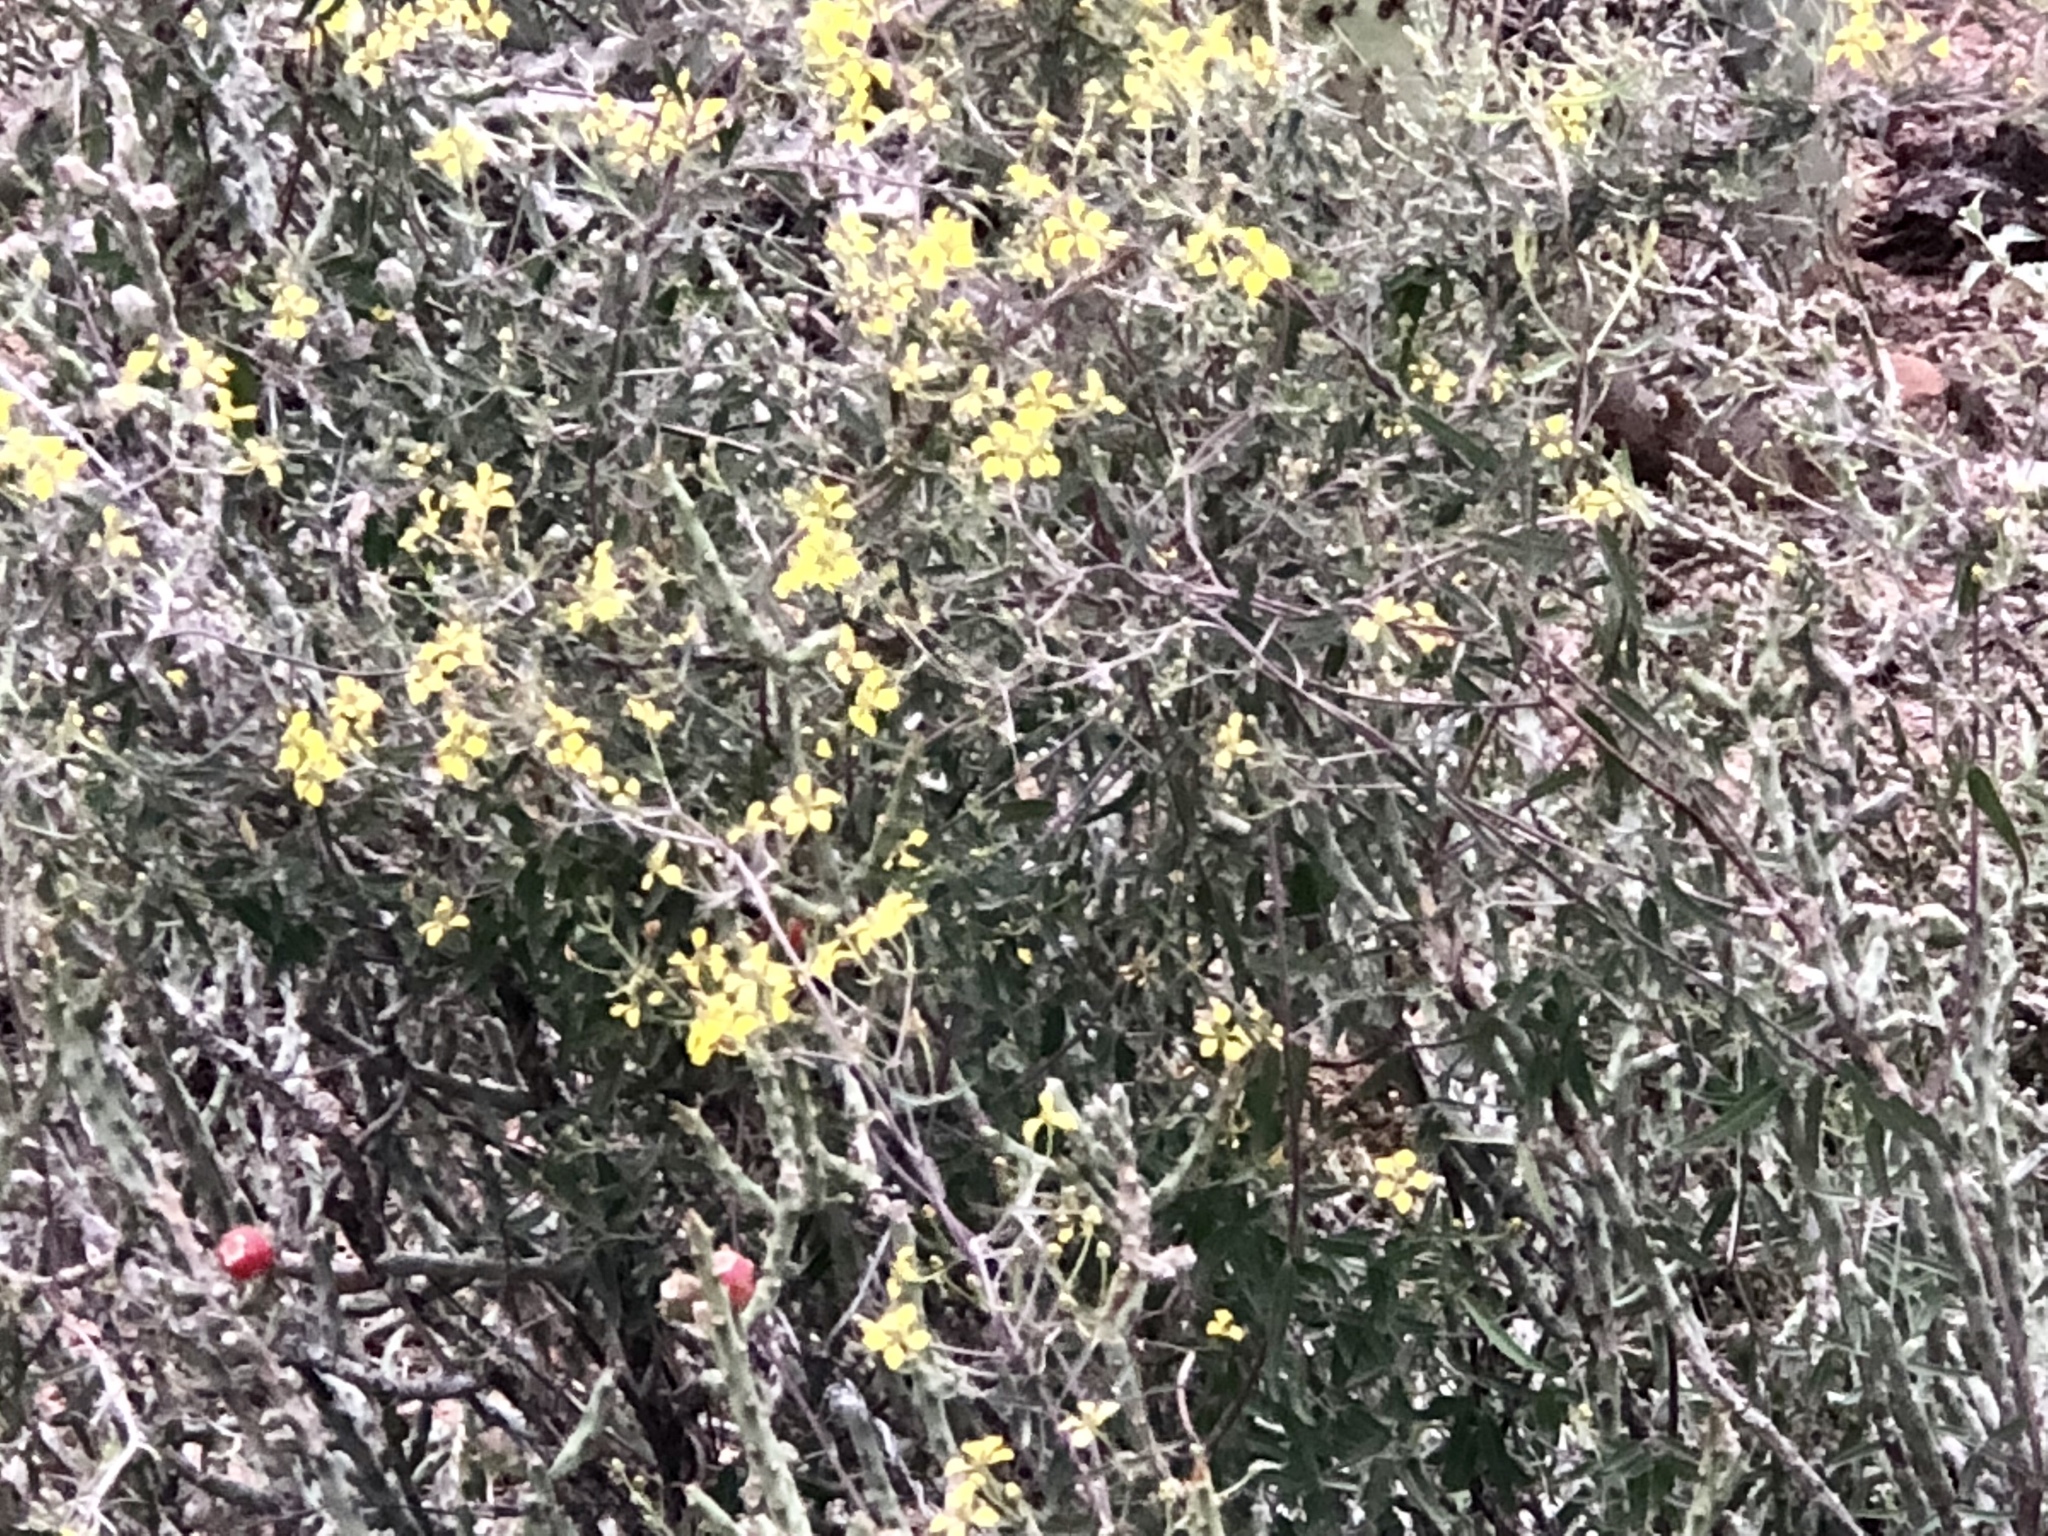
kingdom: Plantae
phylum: Tracheophyta
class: Magnoliopsida
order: Malpighiales
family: Malpighiaceae
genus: Cottsia
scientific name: Cottsia gracilis
